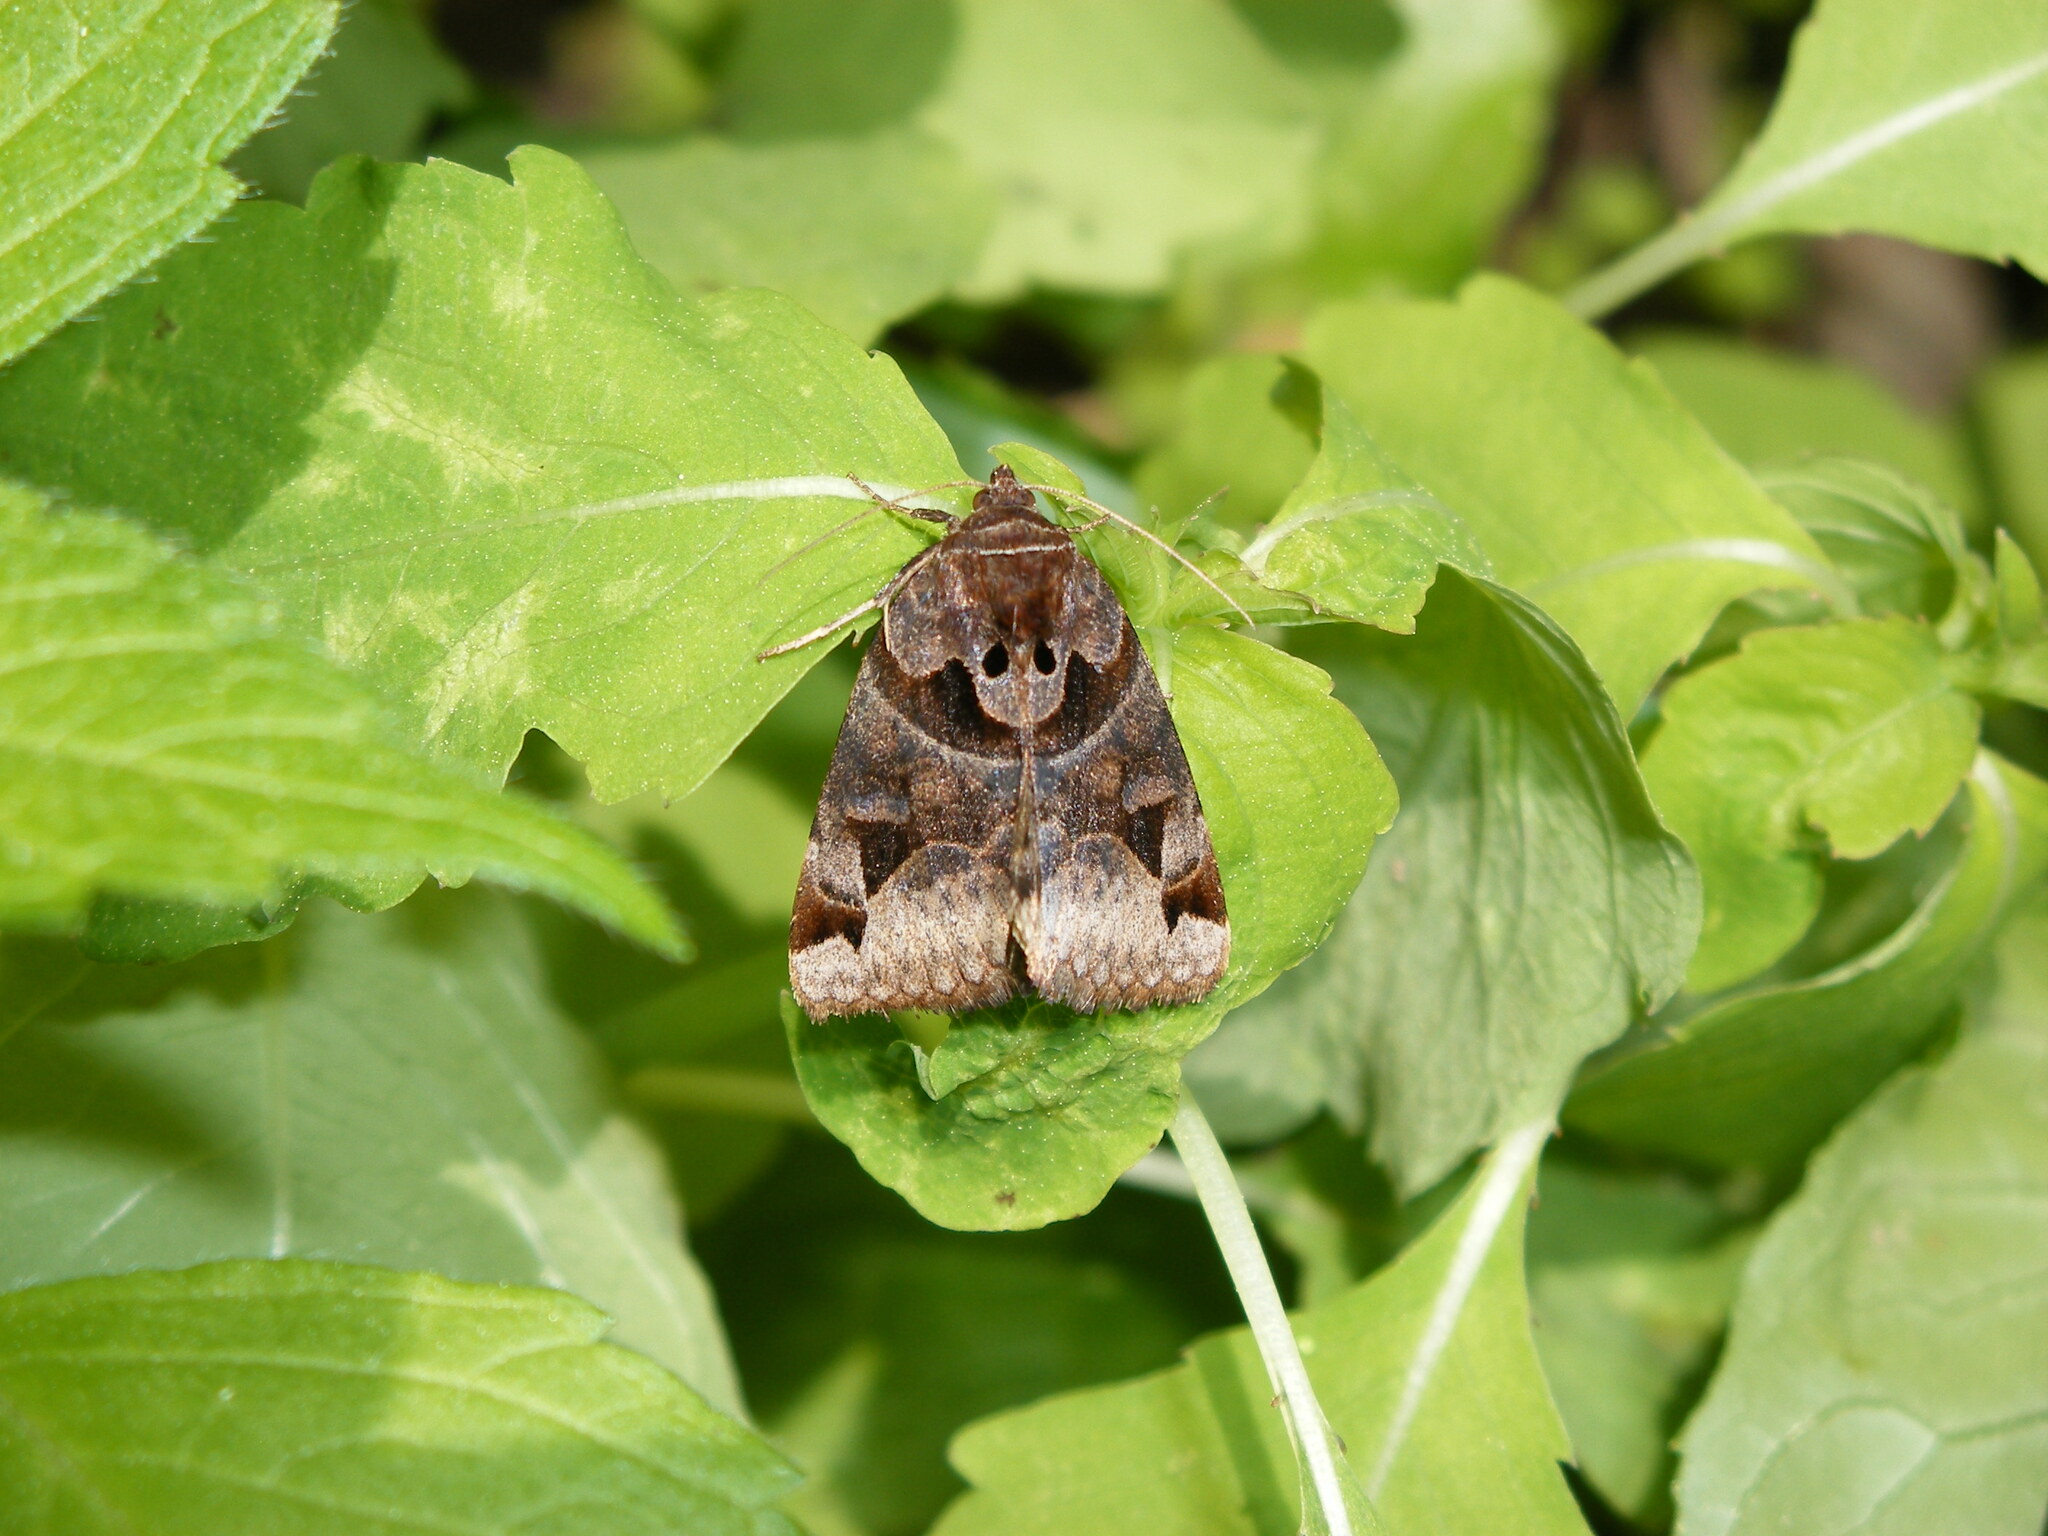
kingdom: Animalia
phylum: Arthropoda
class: Insecta
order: Lepidoptera
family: Erebidae
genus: Euclidia
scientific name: Euclidia cuspidea
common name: Toothed somberwing
